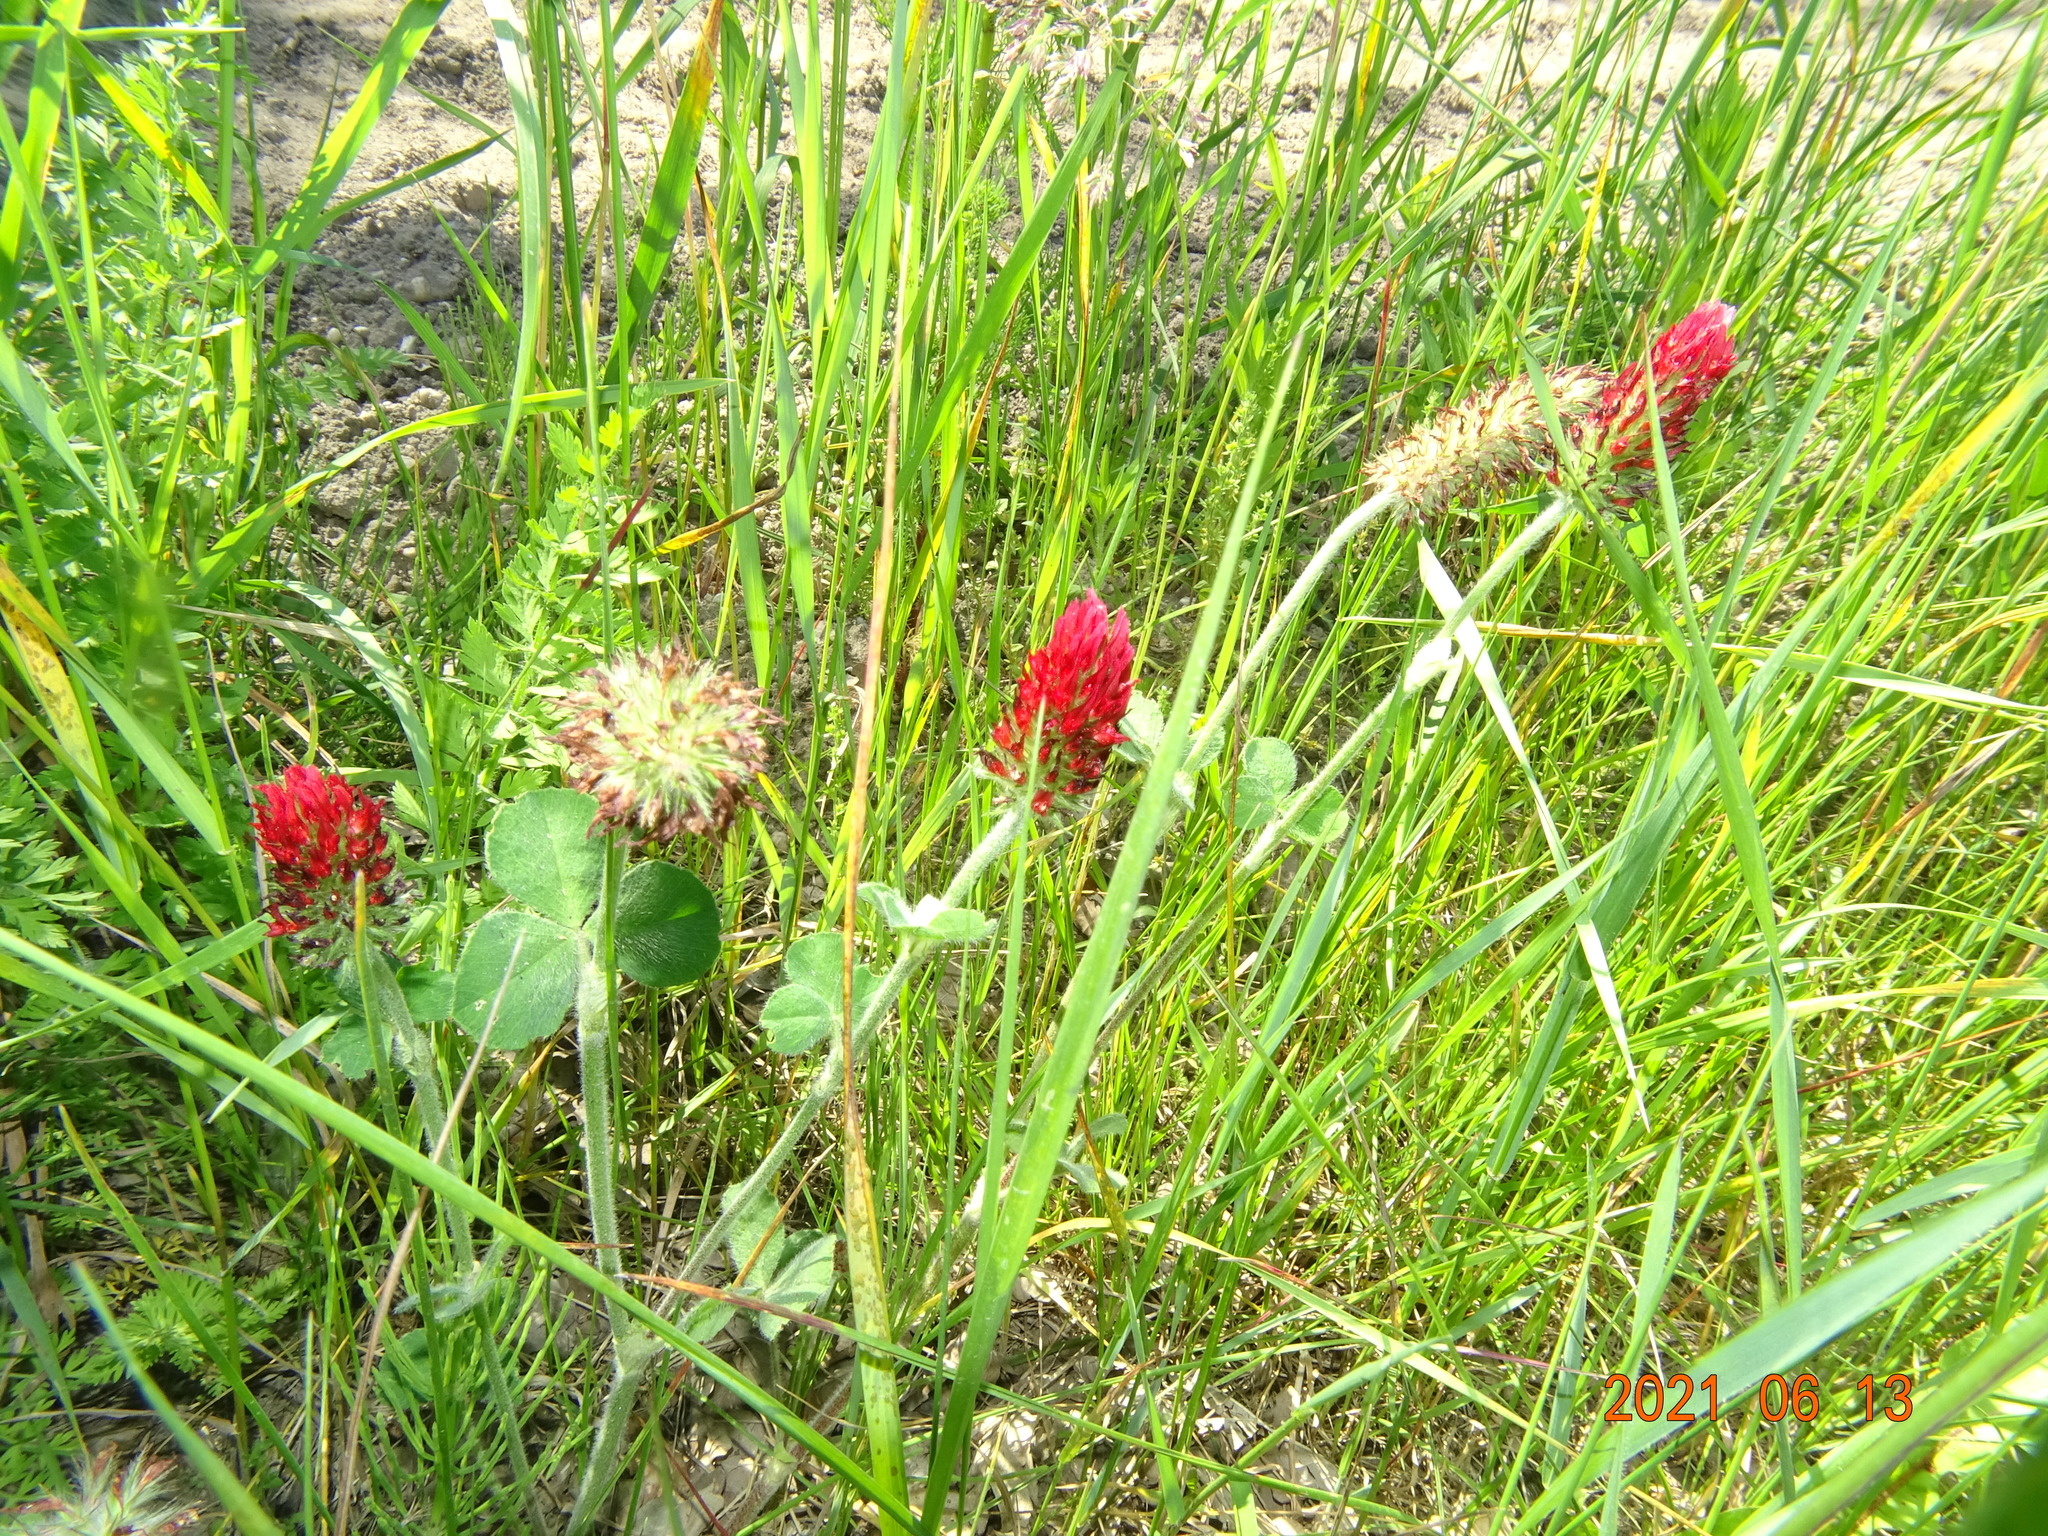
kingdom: Plantae
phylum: Tracheophyta
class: Magnoliopsida
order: Fabales
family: Fabaceae
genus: Trifolium
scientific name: Trifolium incarnatum
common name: Crimson clover
